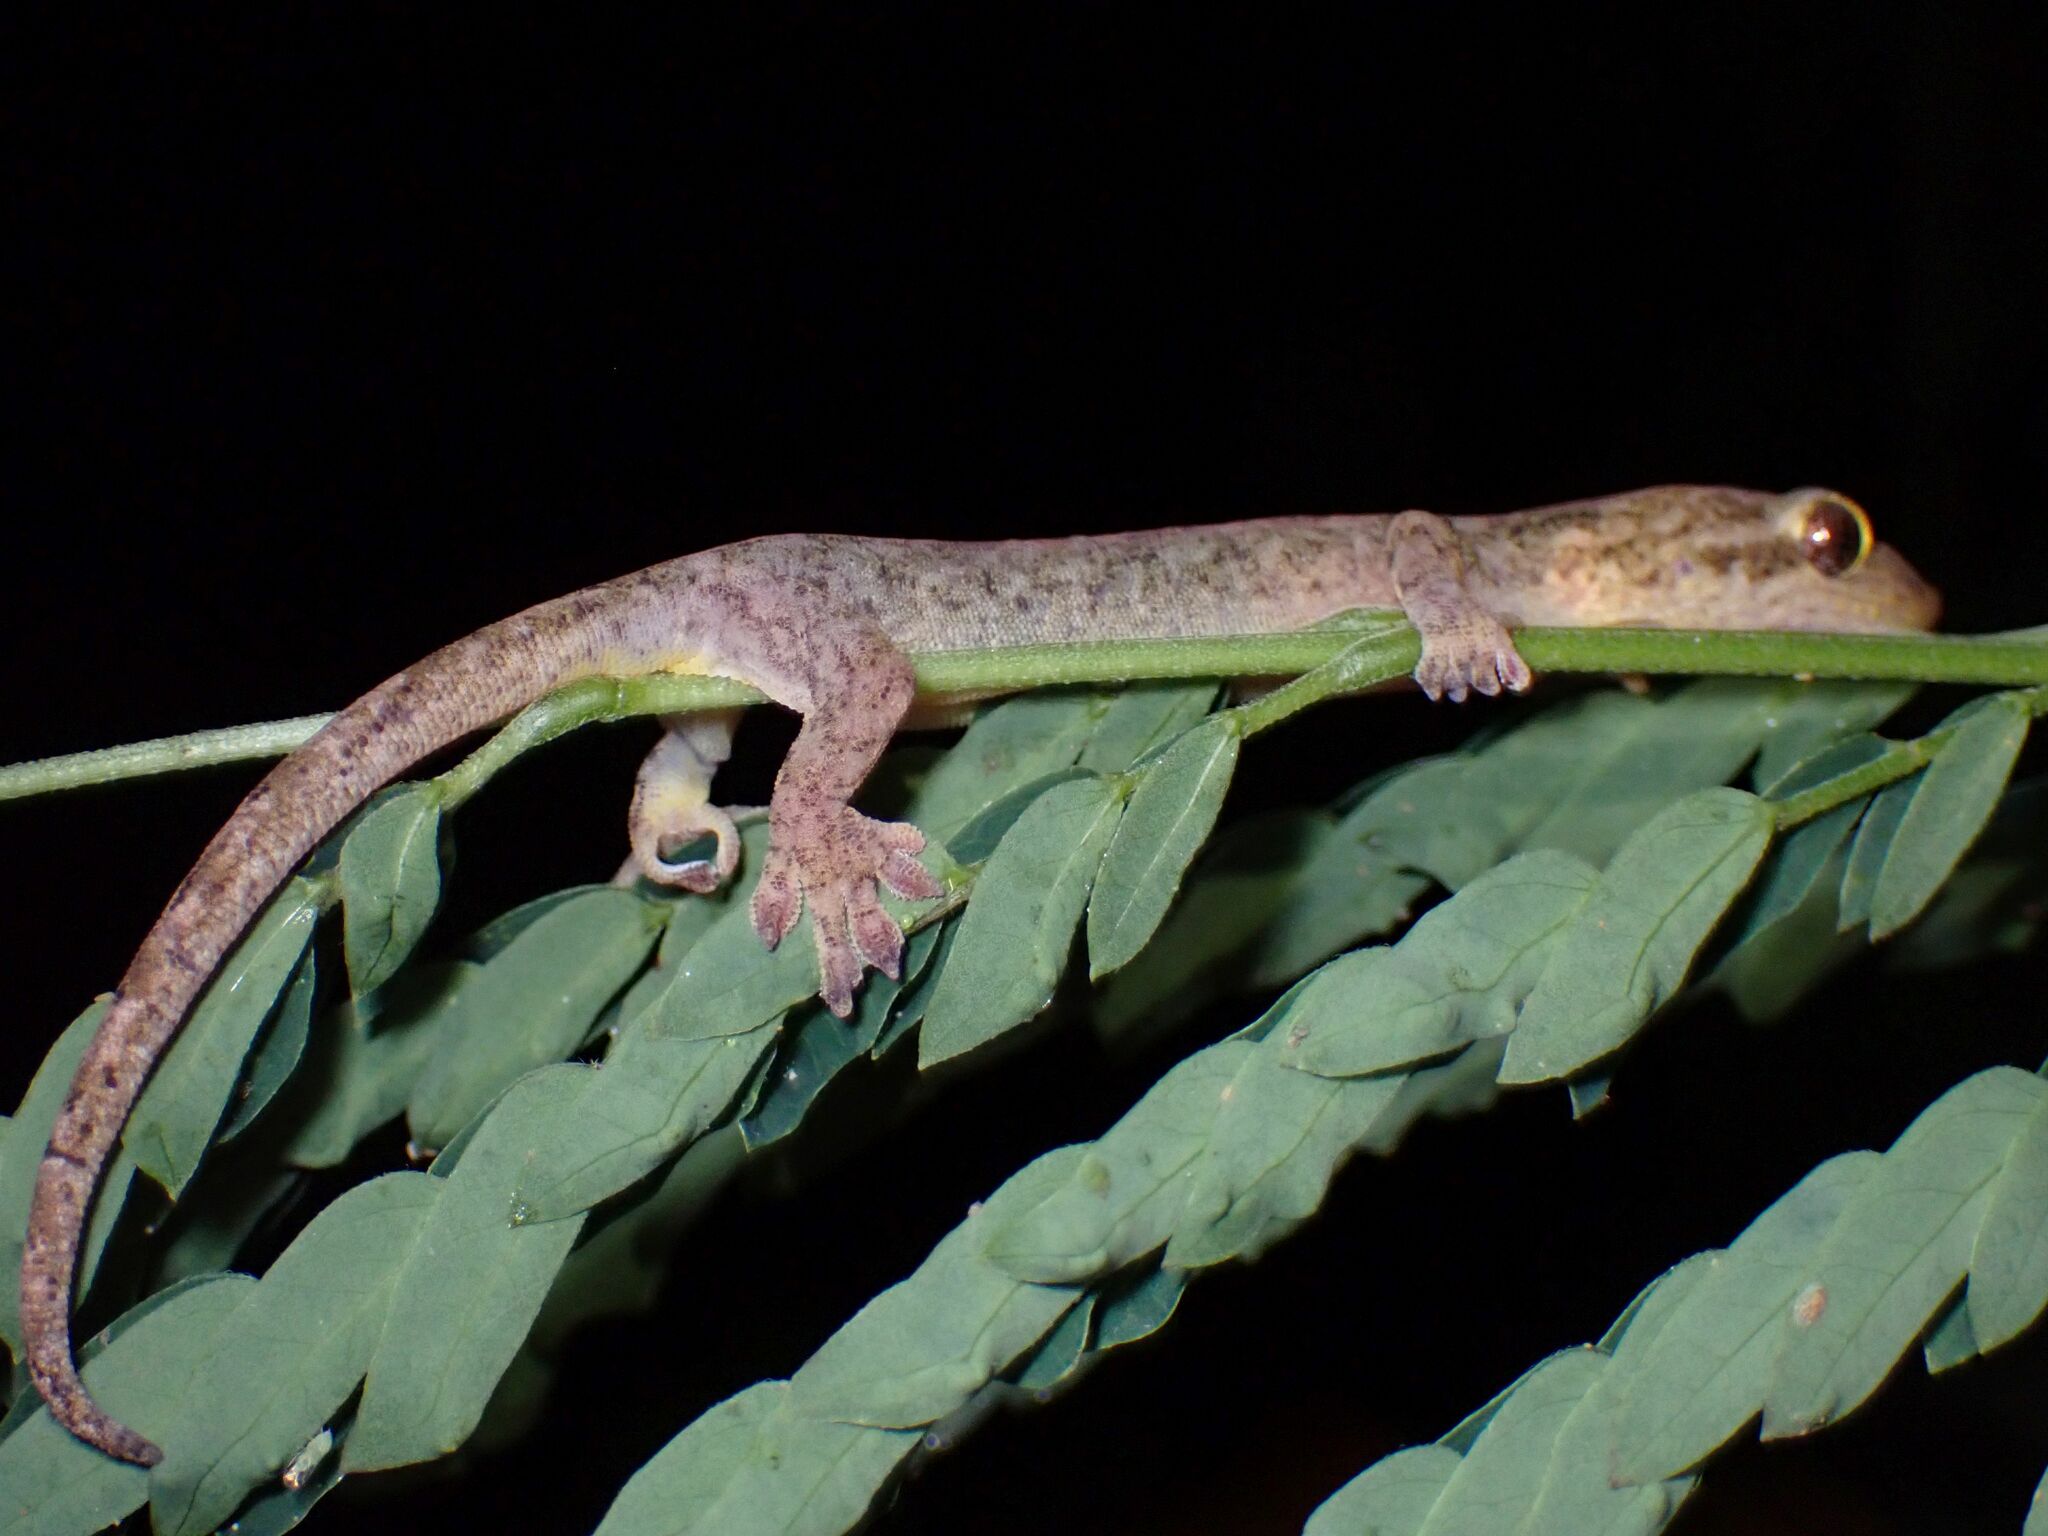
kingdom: Animalia
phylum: Chordata
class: Squamata
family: Gekkonidae
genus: Lepidodactylus
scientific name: Lepidodactylus vanuatuensis
